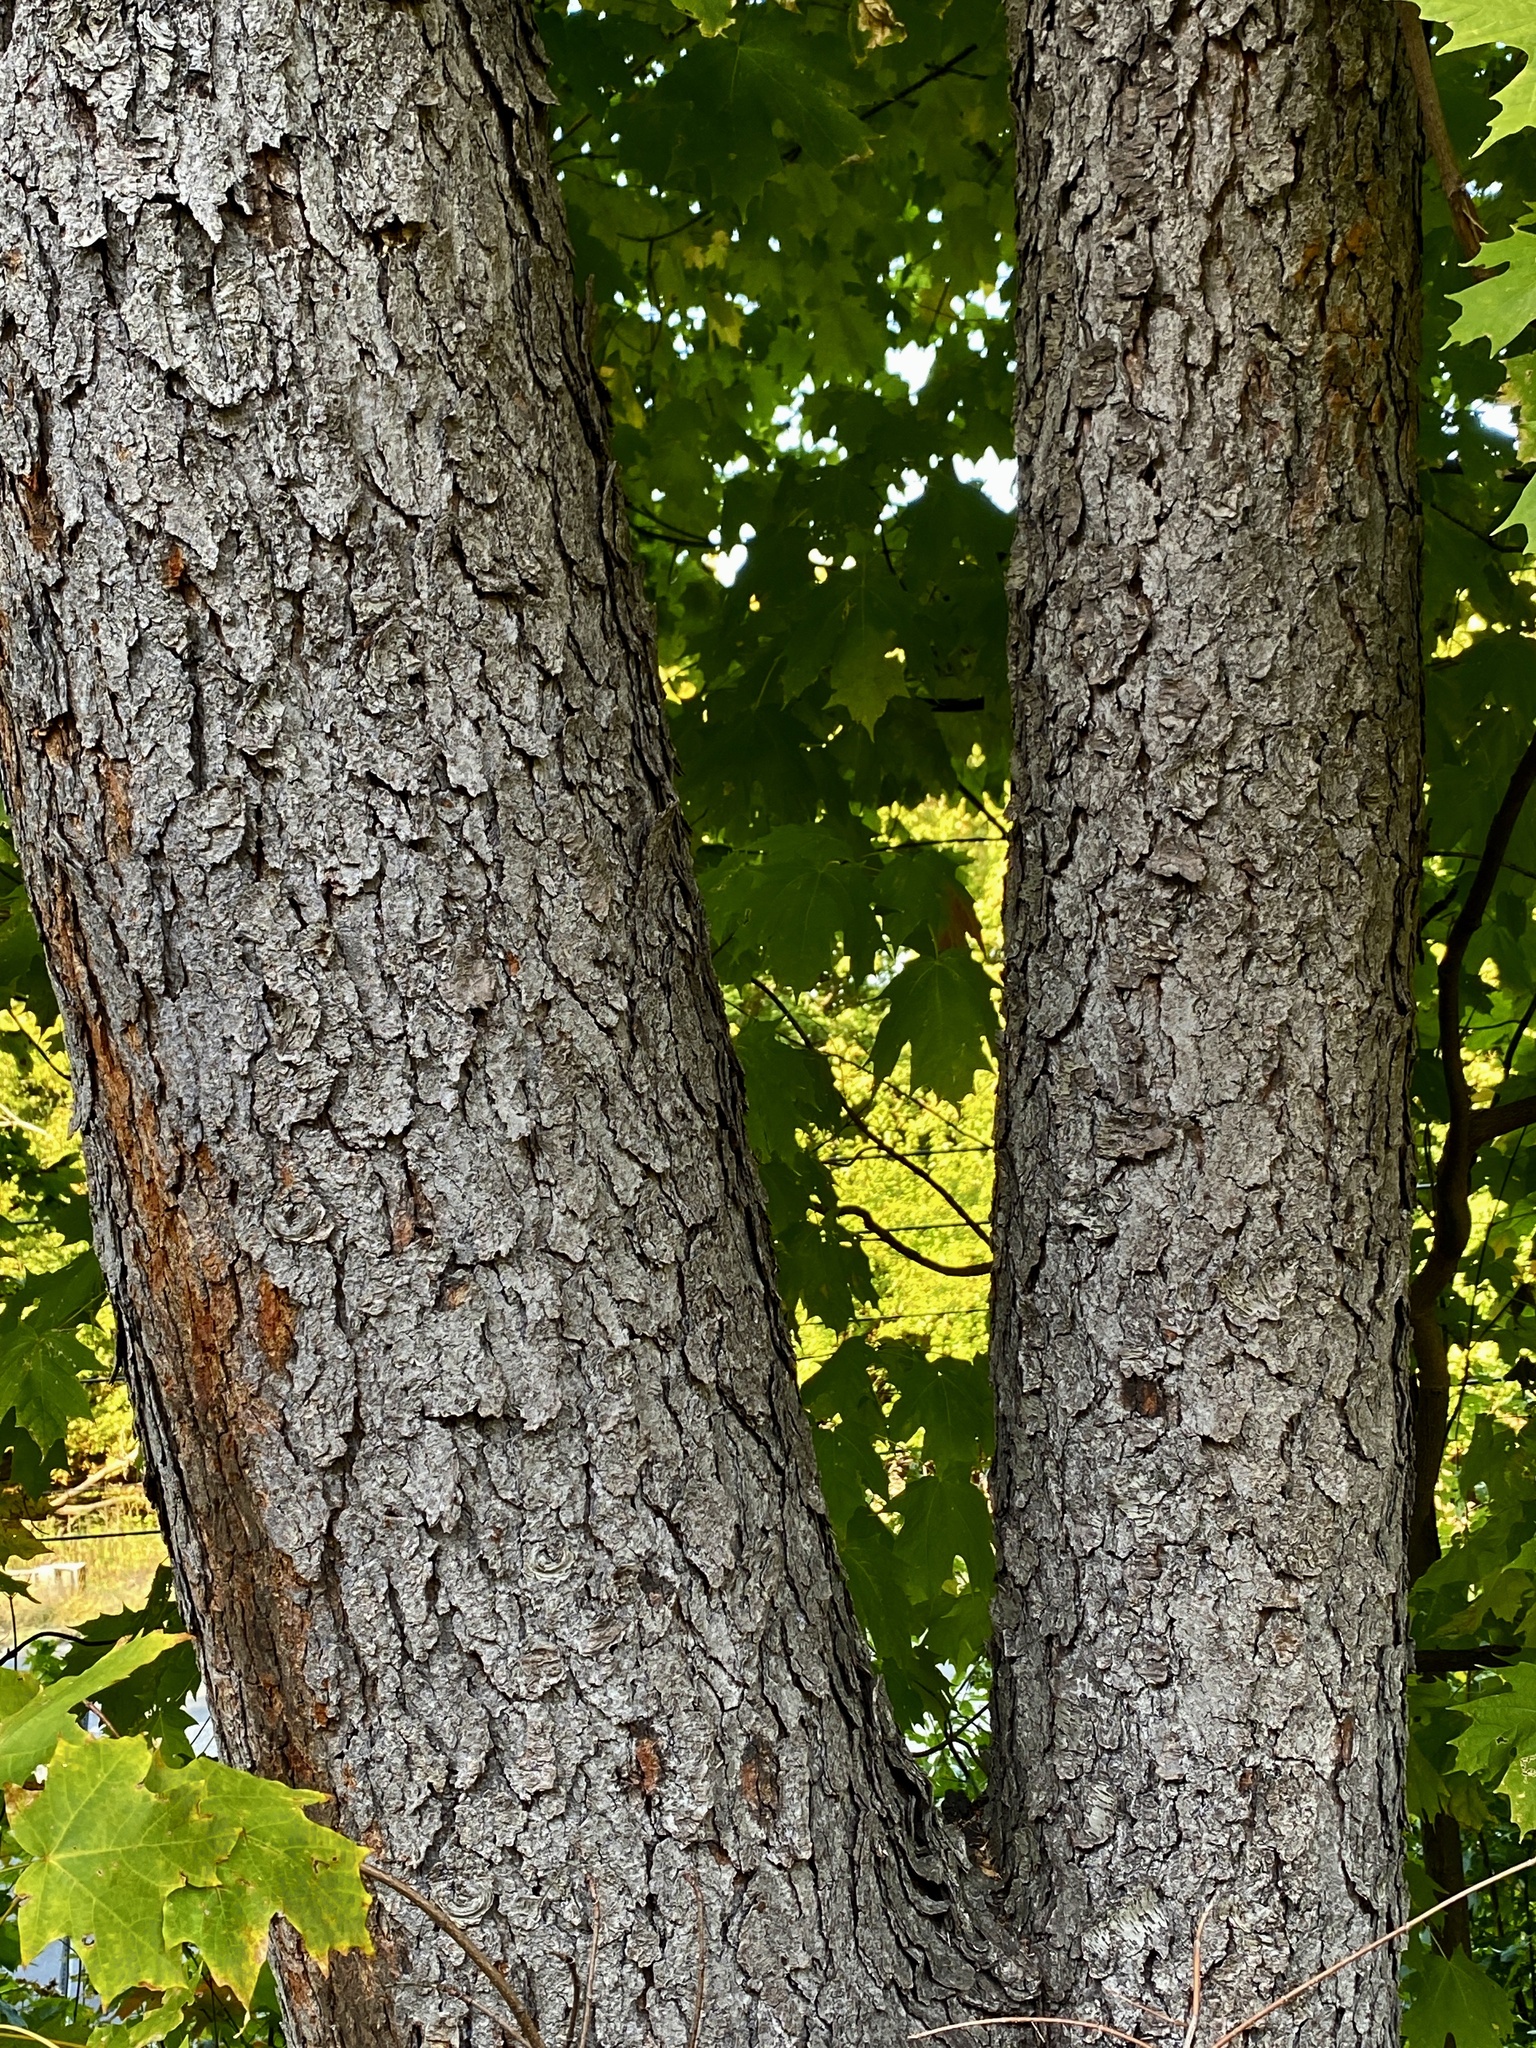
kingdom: Plantae
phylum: Tracheophyta
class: Magnoliopsida
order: Rosales
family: Rosaceae
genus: Prunus
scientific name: Prunus serotina
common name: Black cherry
